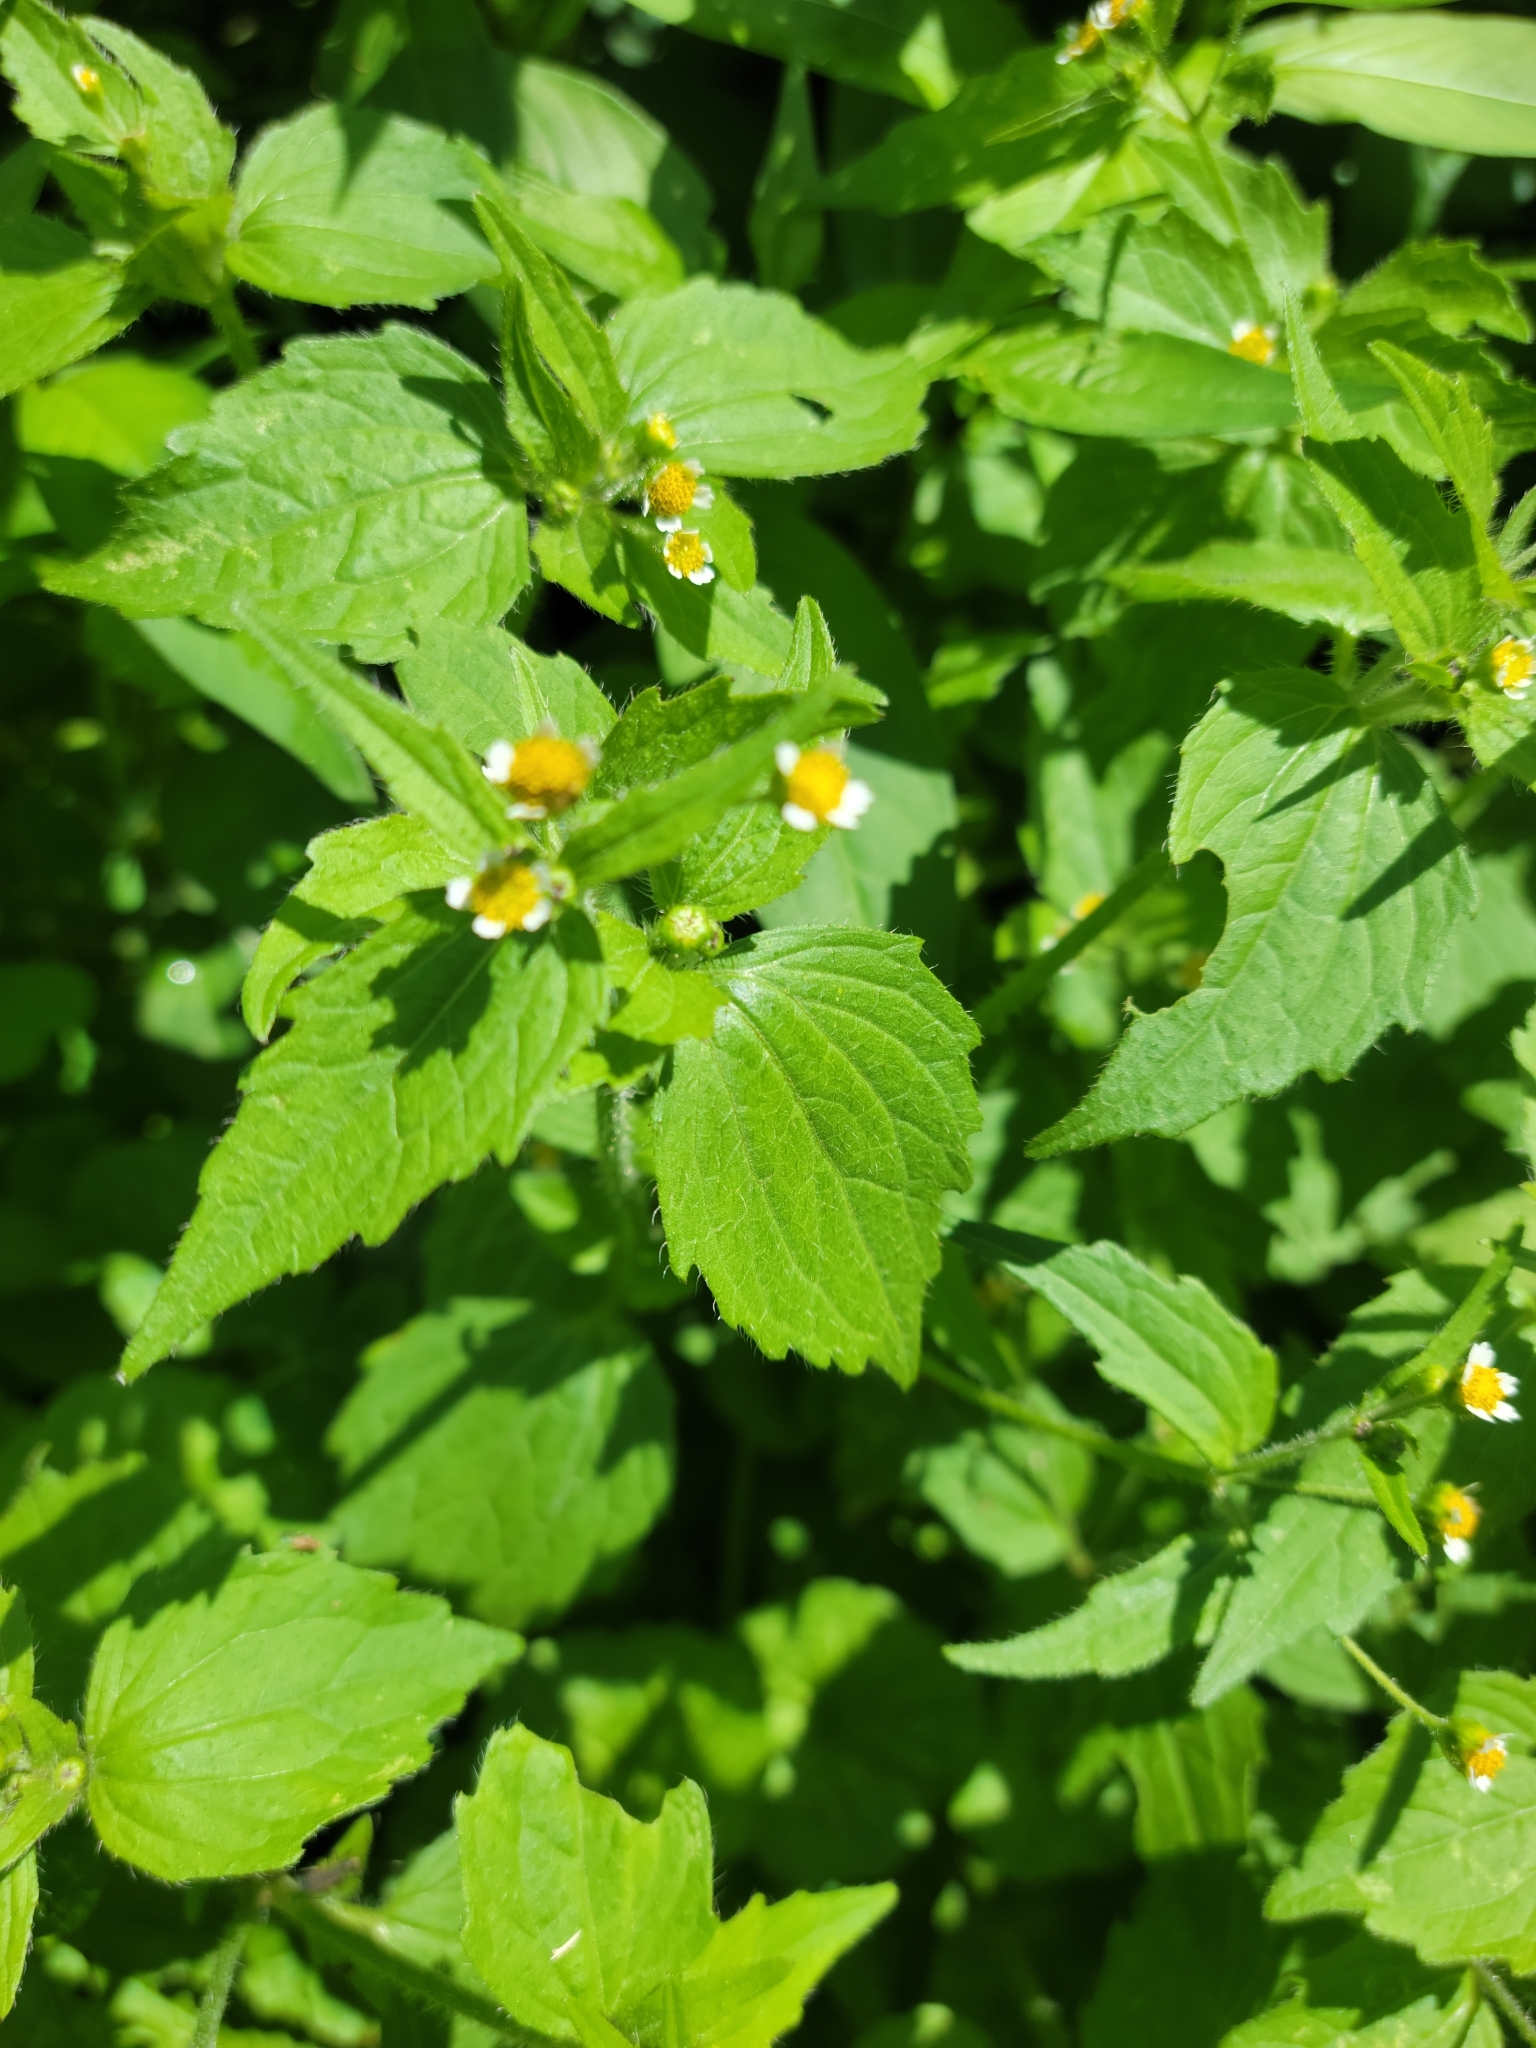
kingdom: Plantae
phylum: Tracheophyta
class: Magnoliopsida
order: Asterales
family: Asteraceae
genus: Galinsoga
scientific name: Galinsoga quadriradiata
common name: Shaggy soldier
